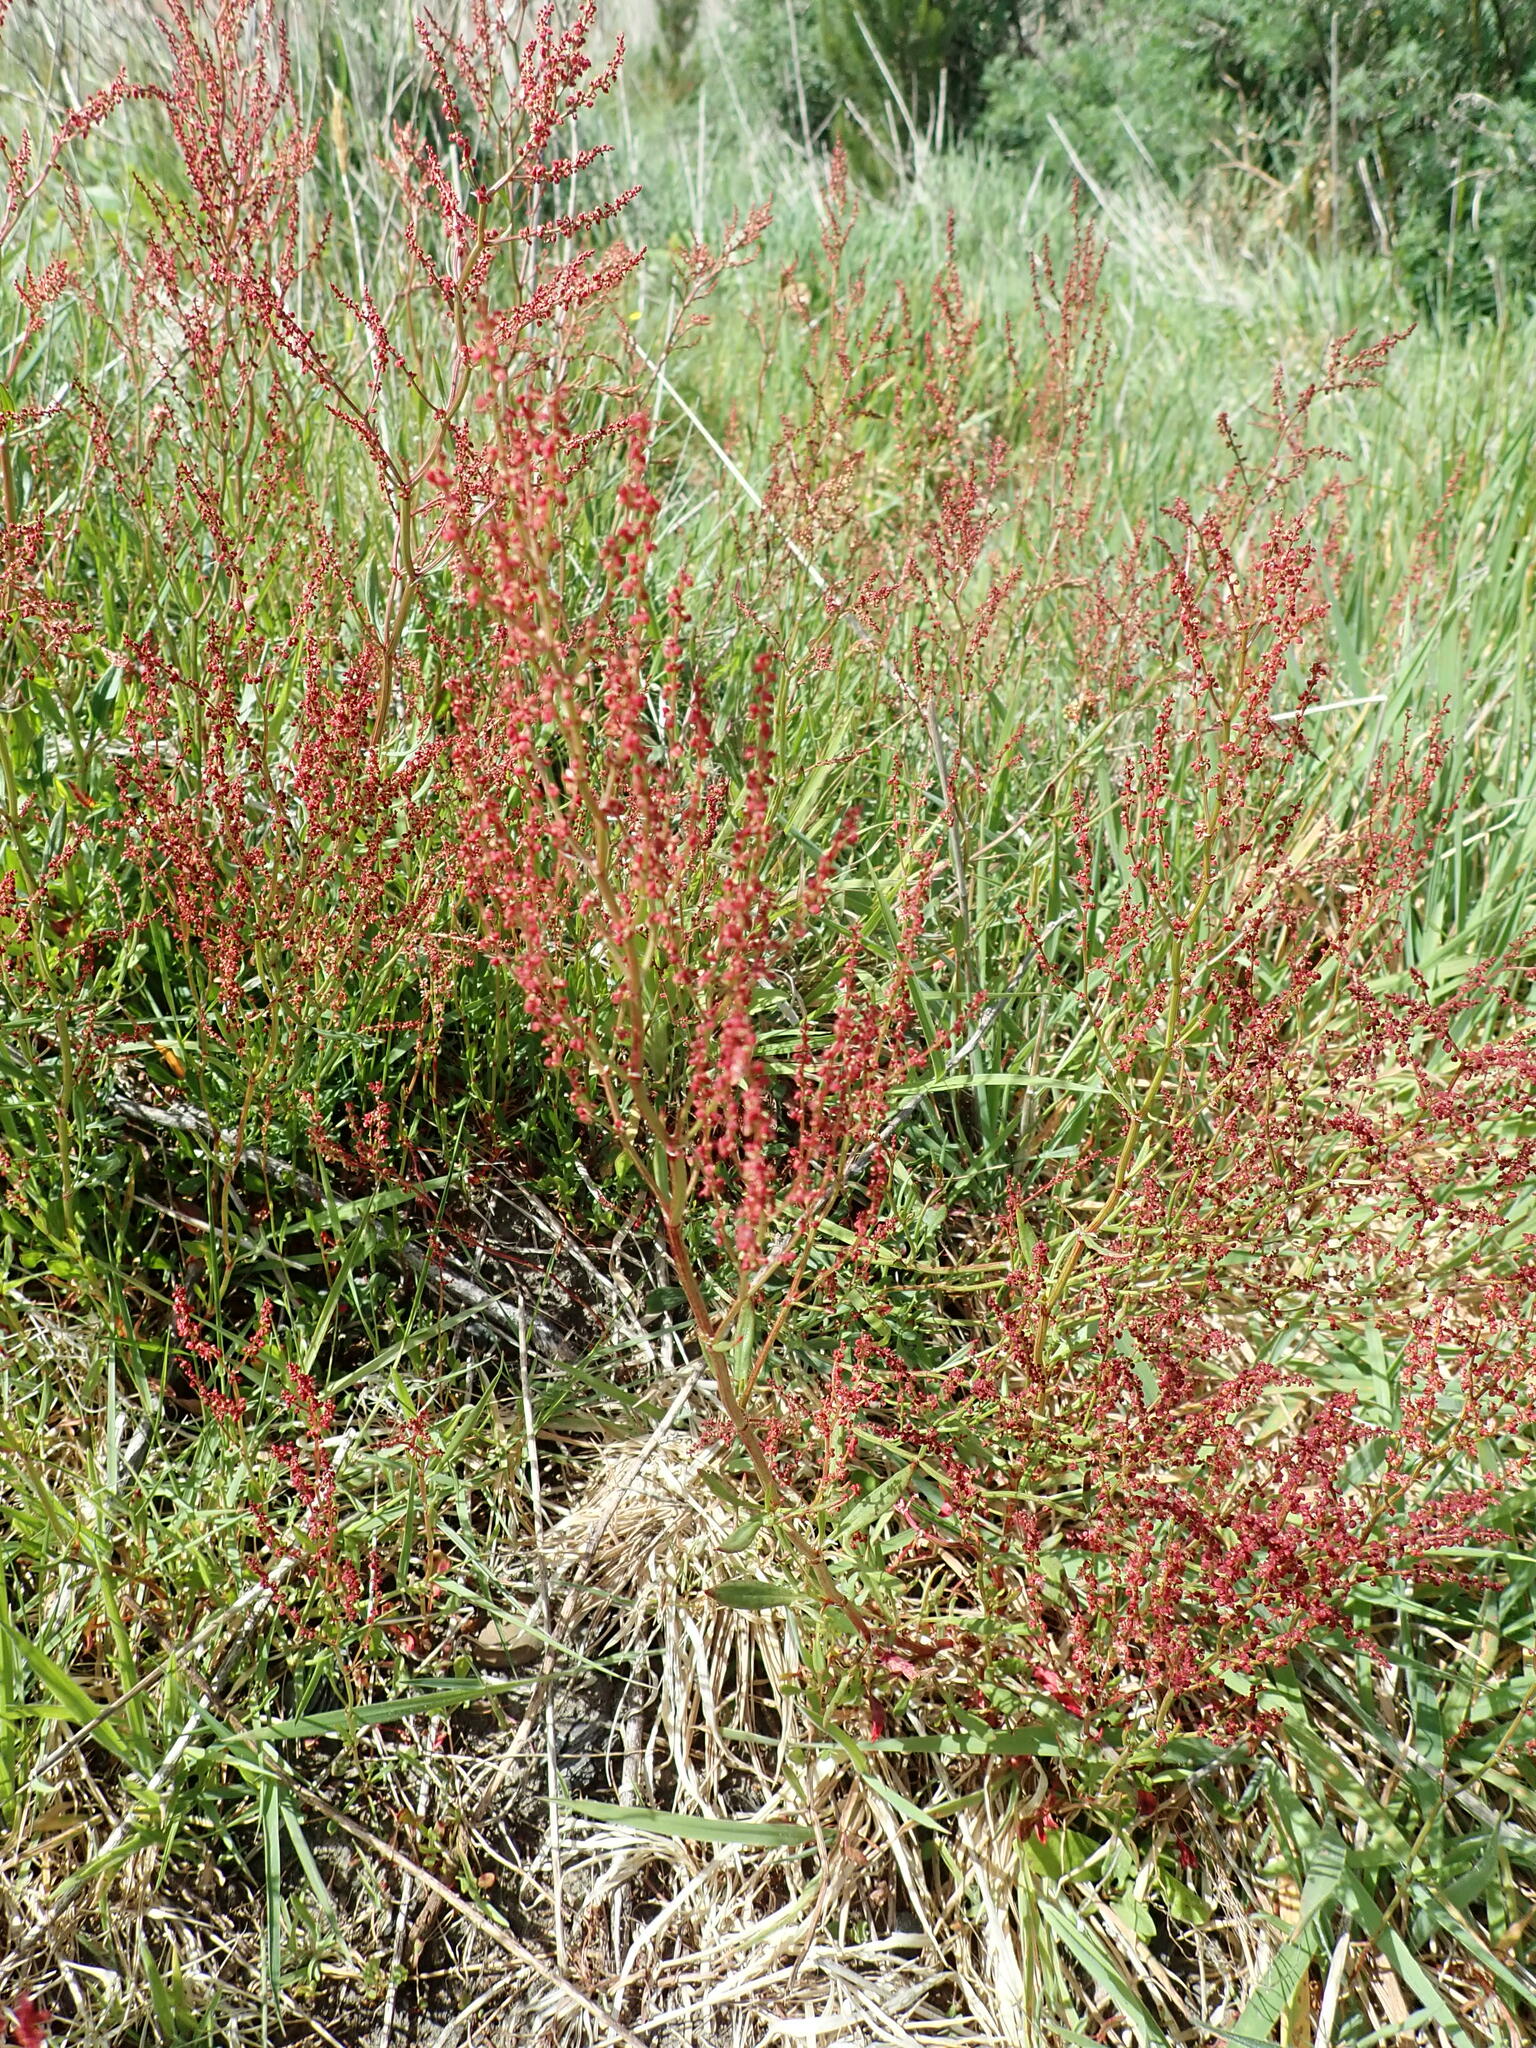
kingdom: Plantae
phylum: Tracheophyta
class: Magnoliopsida
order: Caryophyllales
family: Polygonaceae
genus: Rumex
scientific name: Rumex acetosella
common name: Common sheep sorrel
